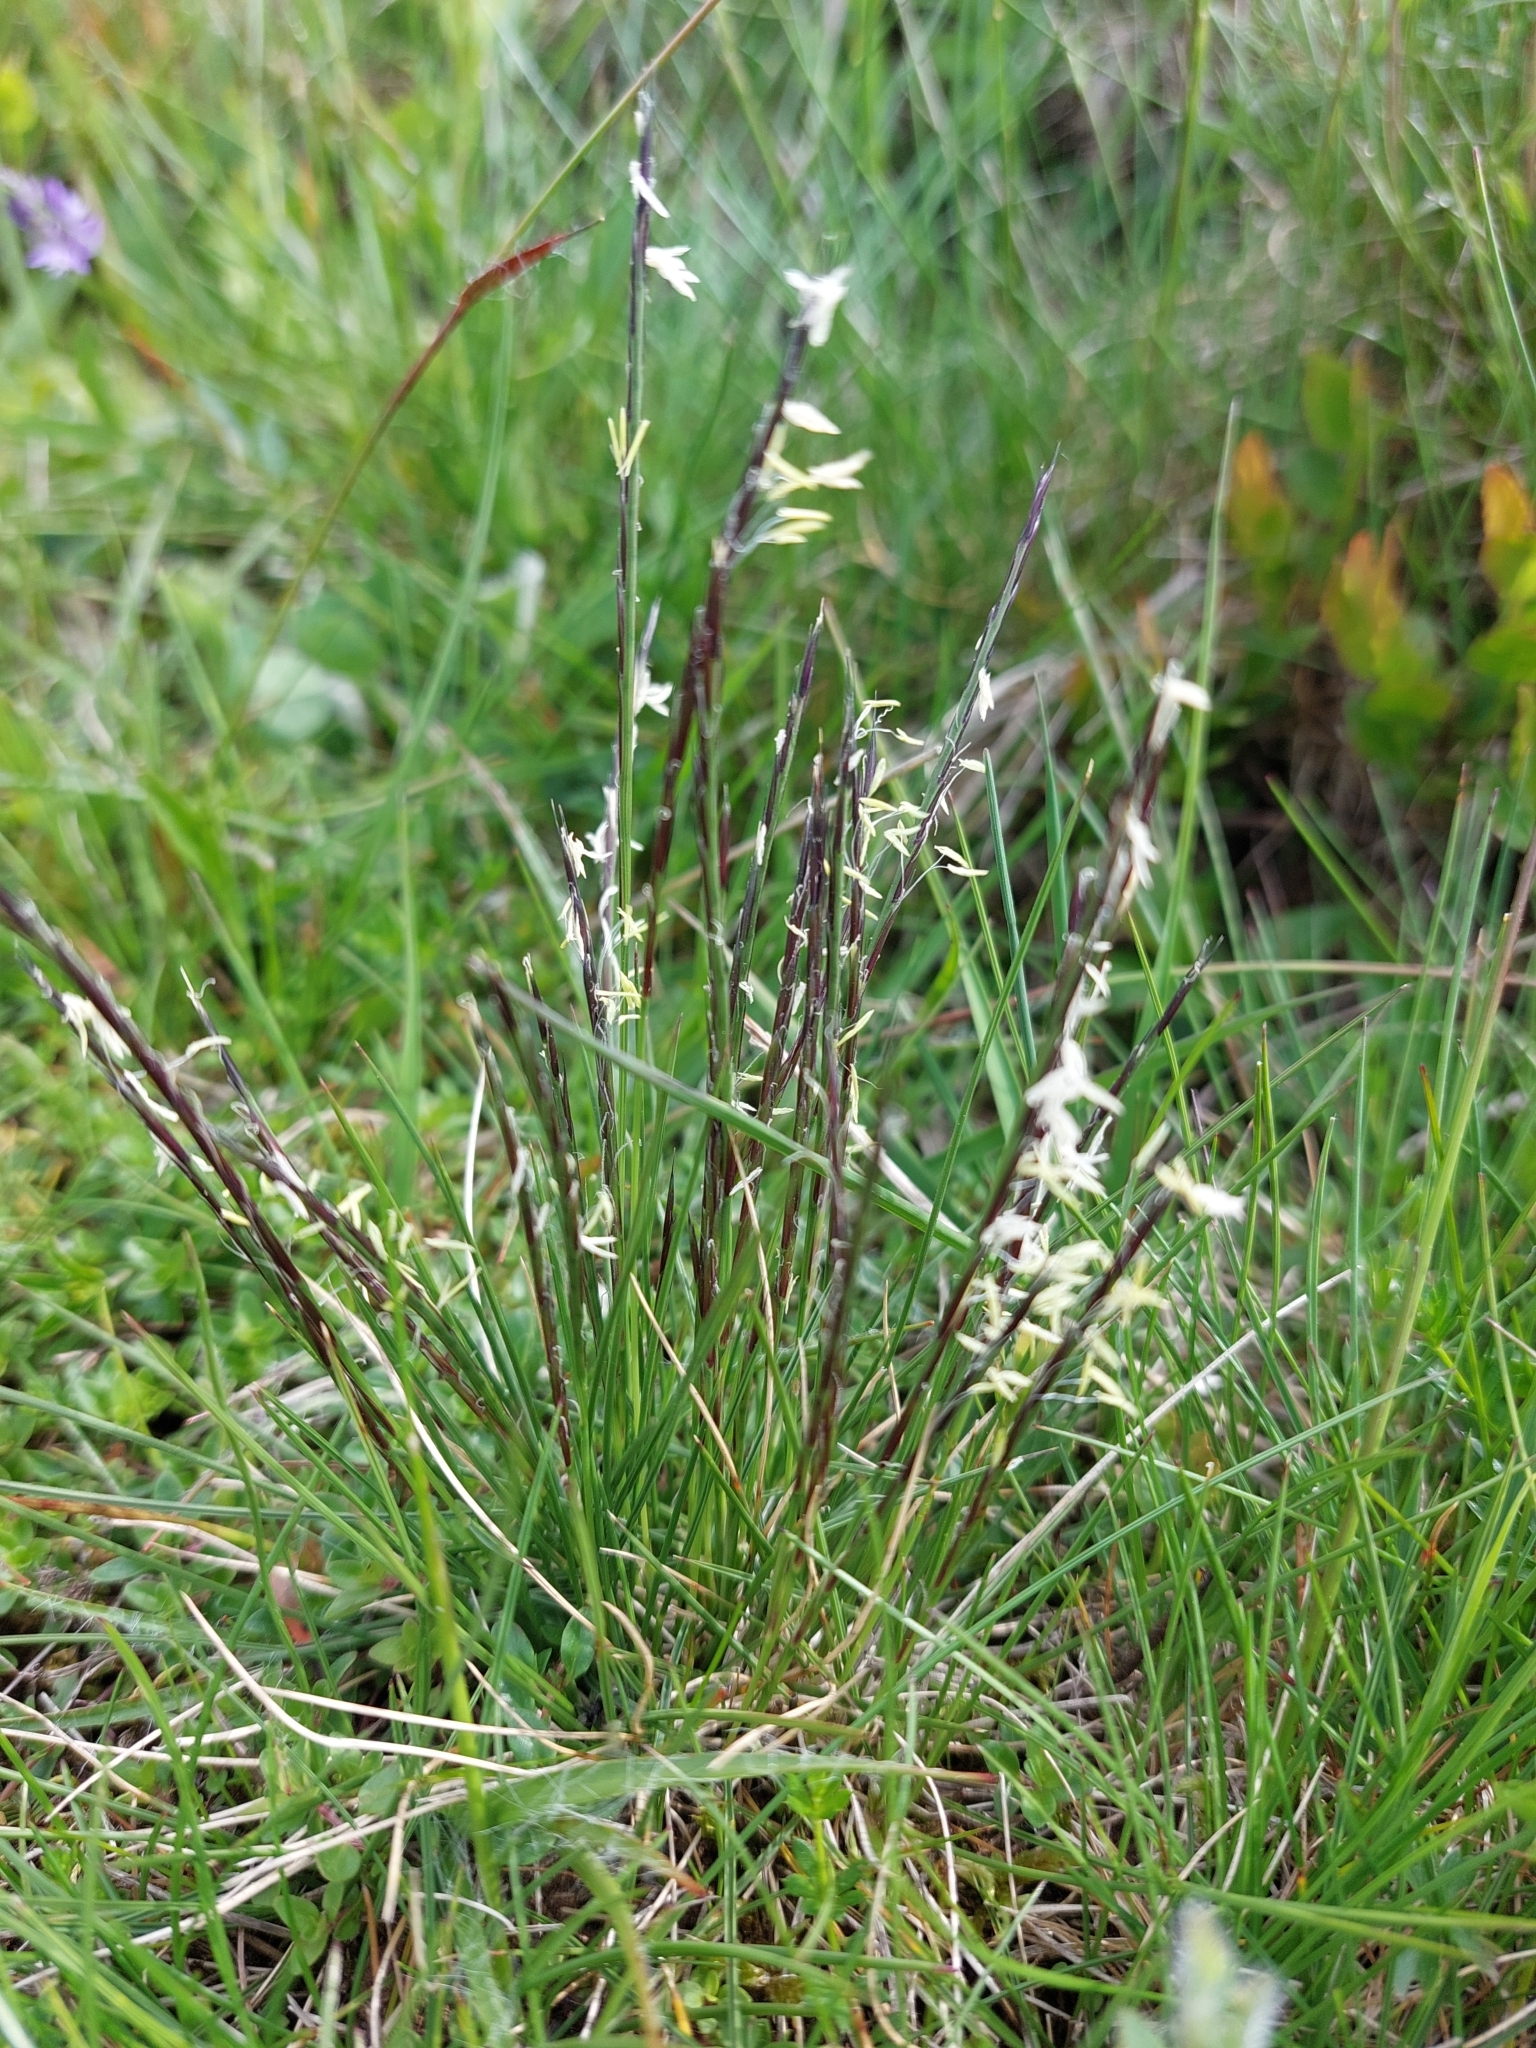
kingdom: Plantae
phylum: Tracheophyta
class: Liliopsida
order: Poales
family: Poaceae
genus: Nardus
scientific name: Nardus stricta
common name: Mat-grass
